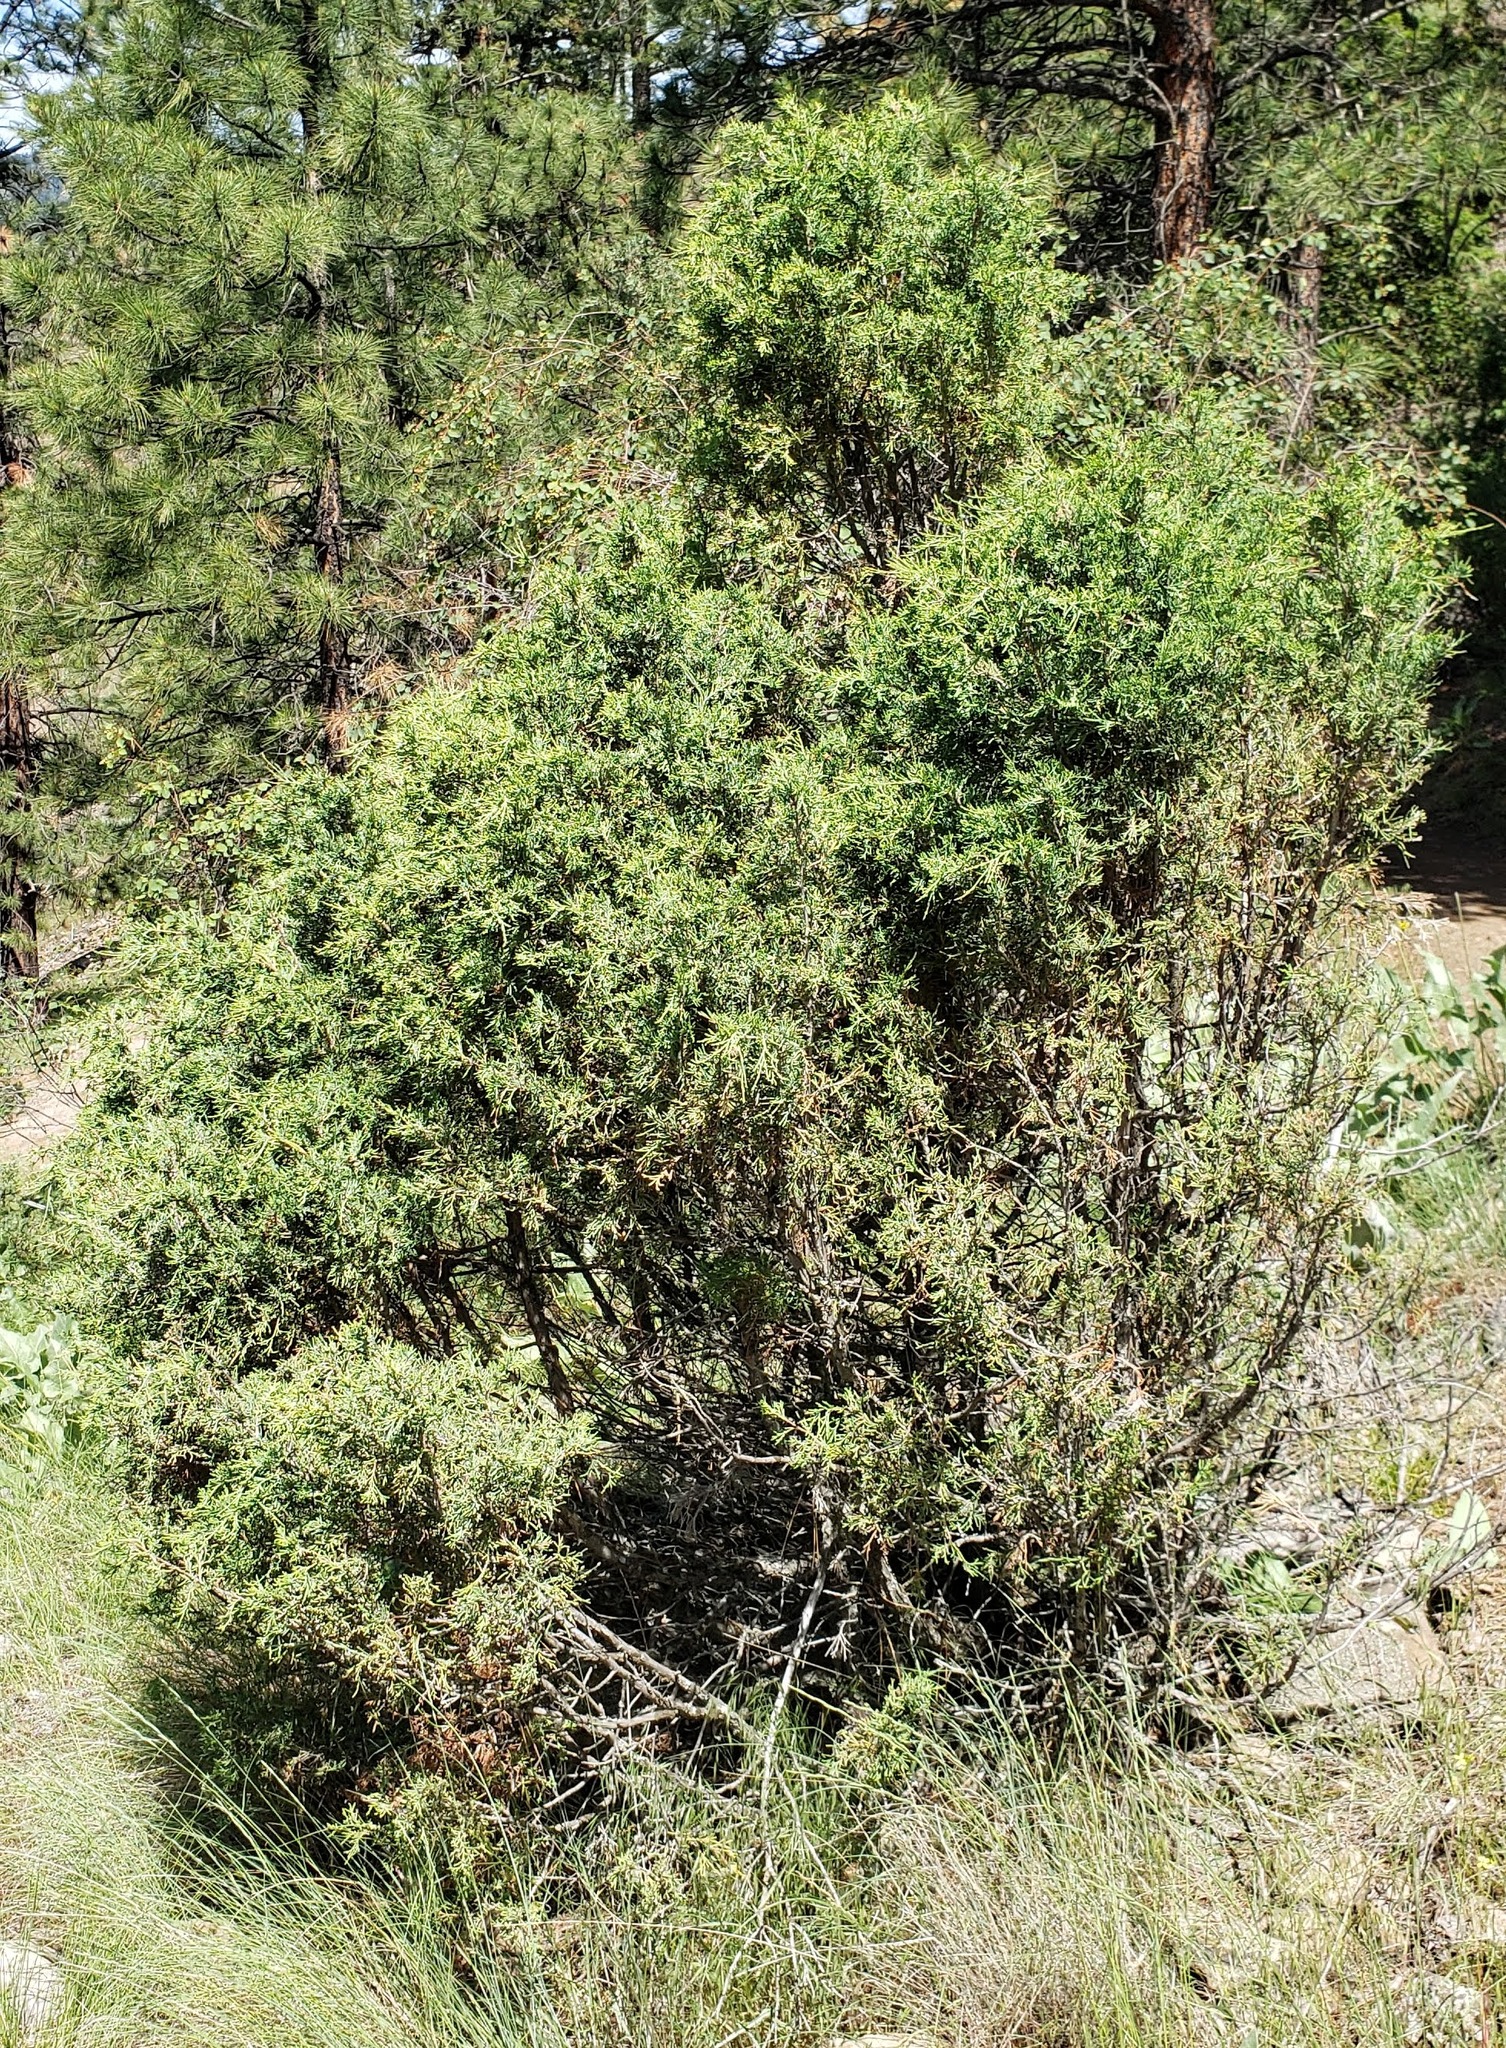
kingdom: Plantae
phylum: Tracheophyta
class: Pinopsida
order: Pinales
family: Cupressaceae
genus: Juniperus
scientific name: Juniperus scopulorum
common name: Rocky mountain juniper
